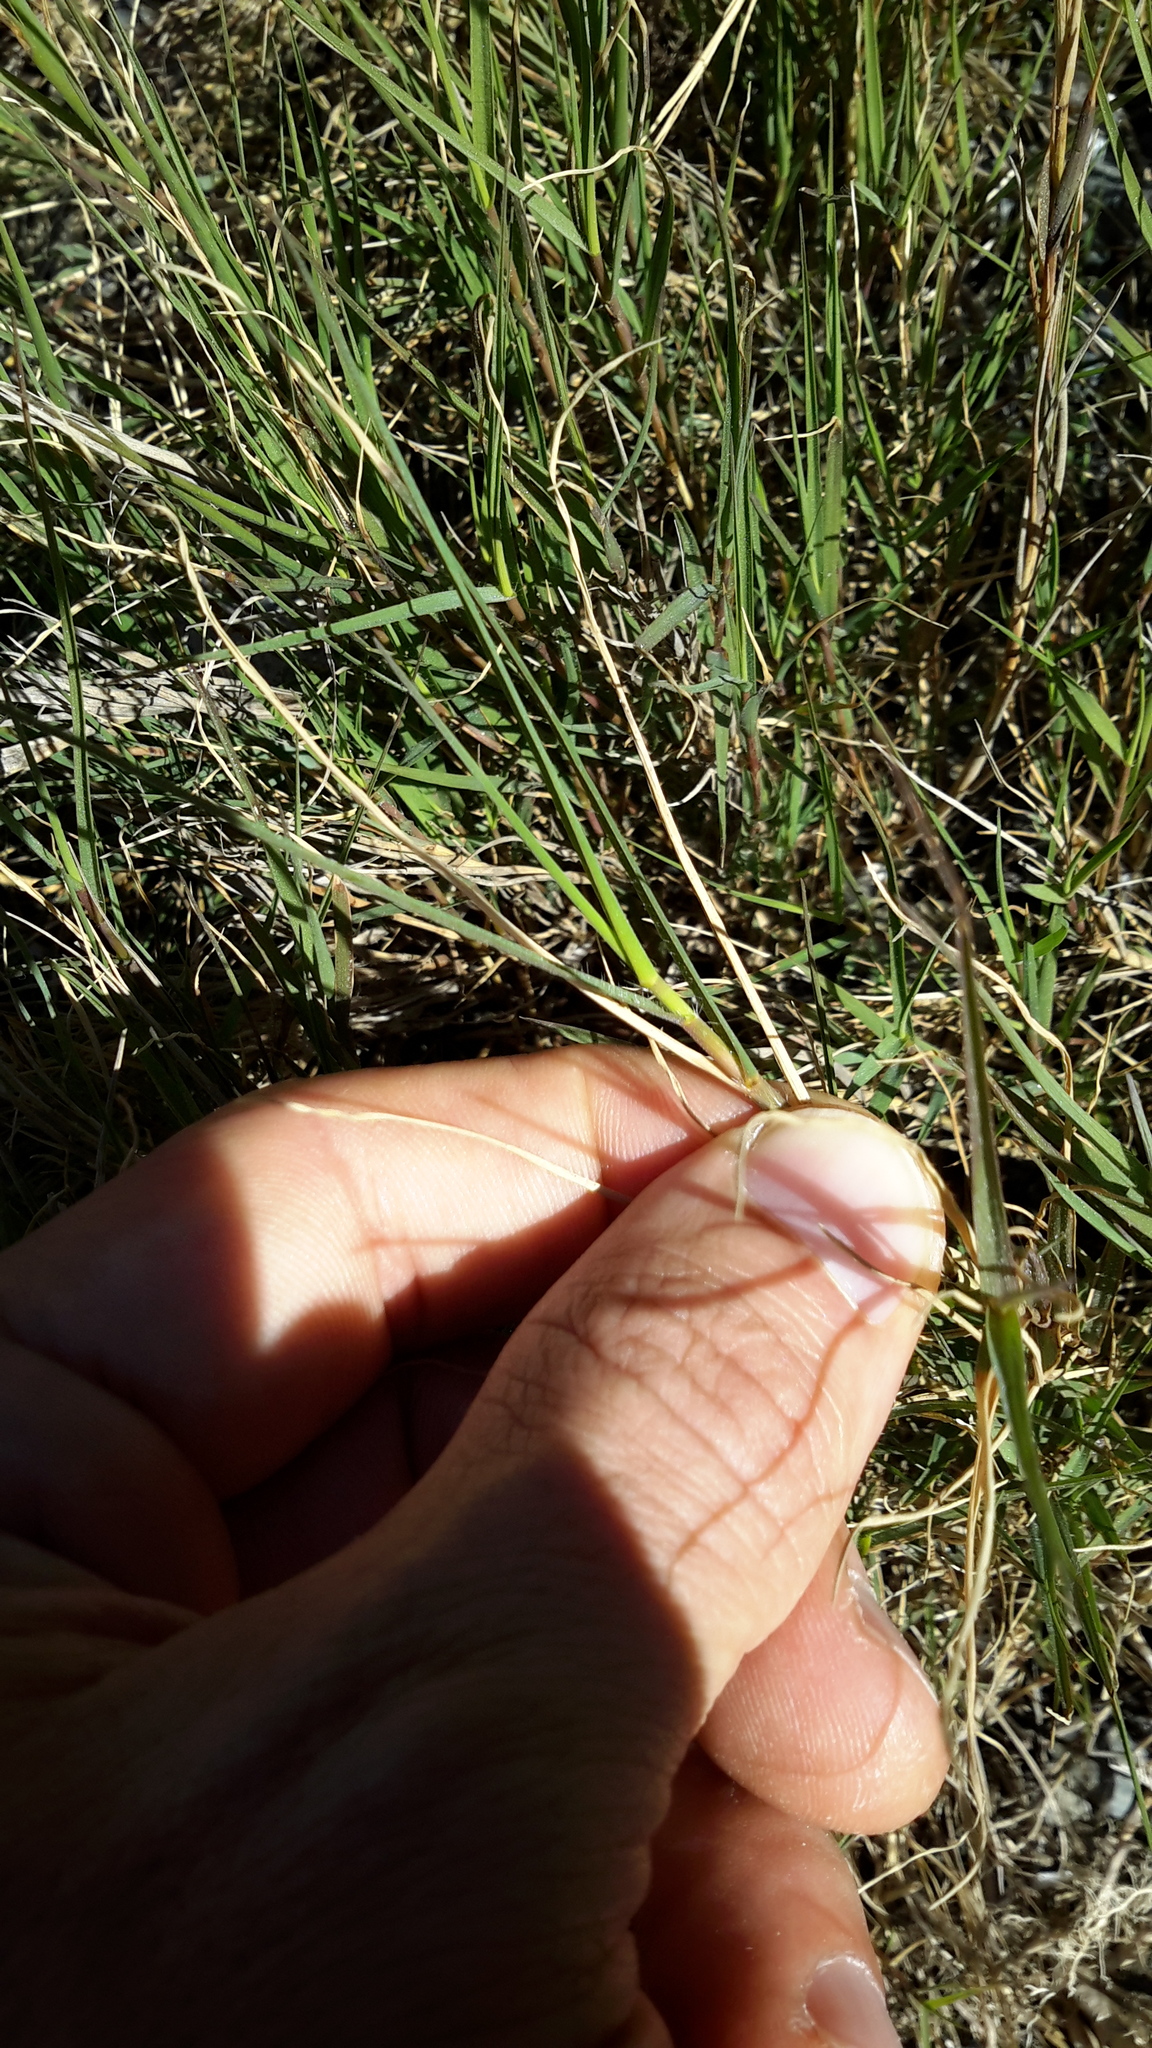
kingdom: Plantae
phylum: Tracheophyta
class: Liliopsida
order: Poales
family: Poaceae
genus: Distichlis
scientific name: Distichlis spicata
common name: Saltgrass
